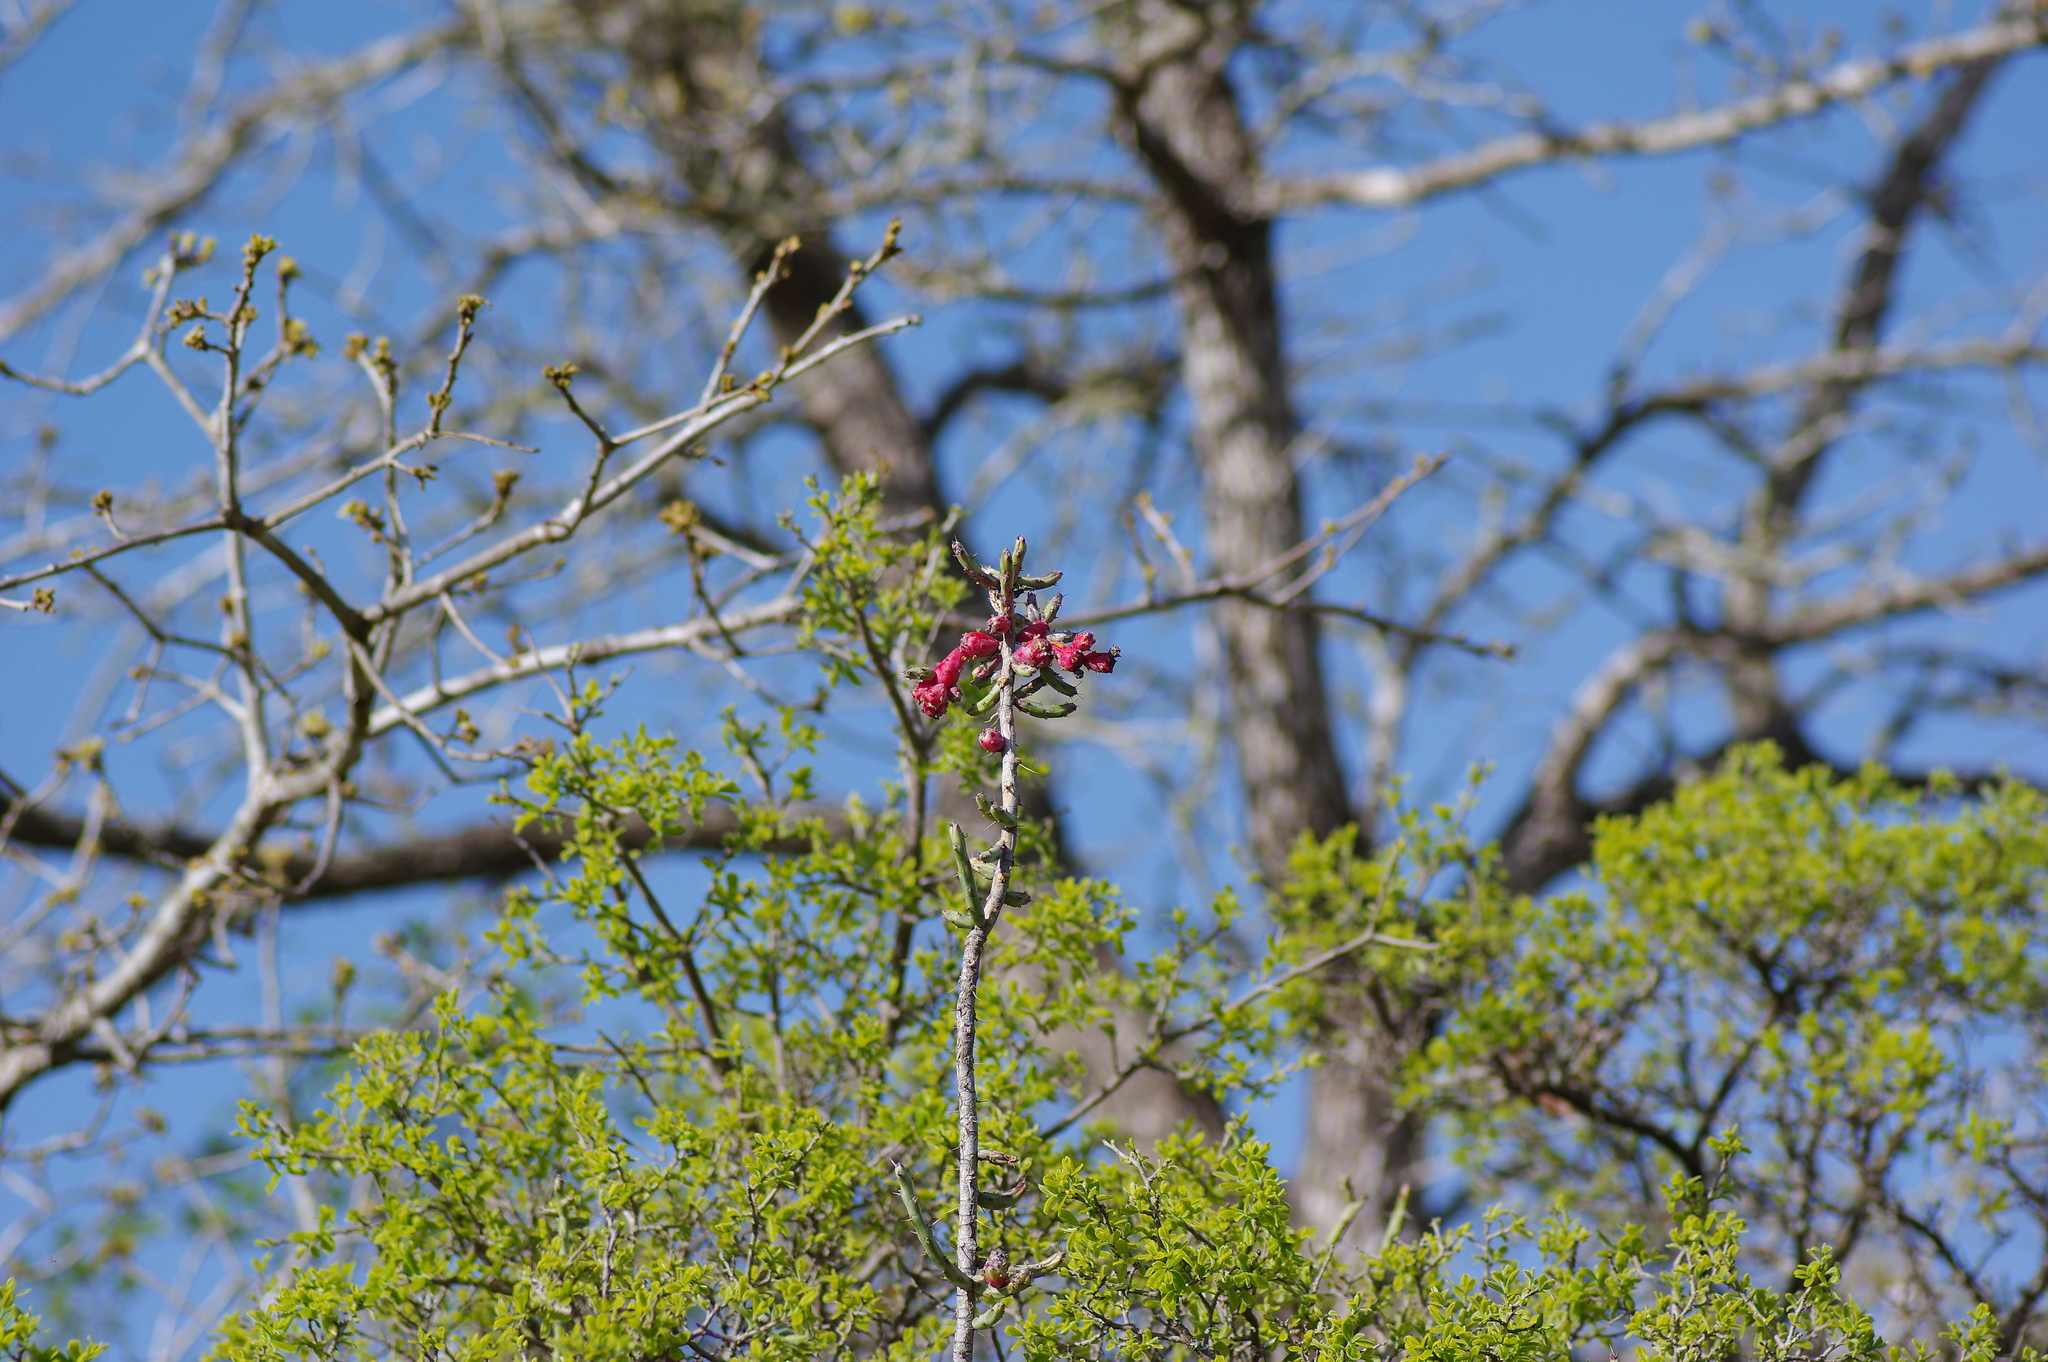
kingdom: Plantae
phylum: Tracheophyta
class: Magnoliopsida
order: Caryophyllales
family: Cactaceae
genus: Cylindropuntia
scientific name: Cylindropuntia leptocaulis
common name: Christmas cactus
